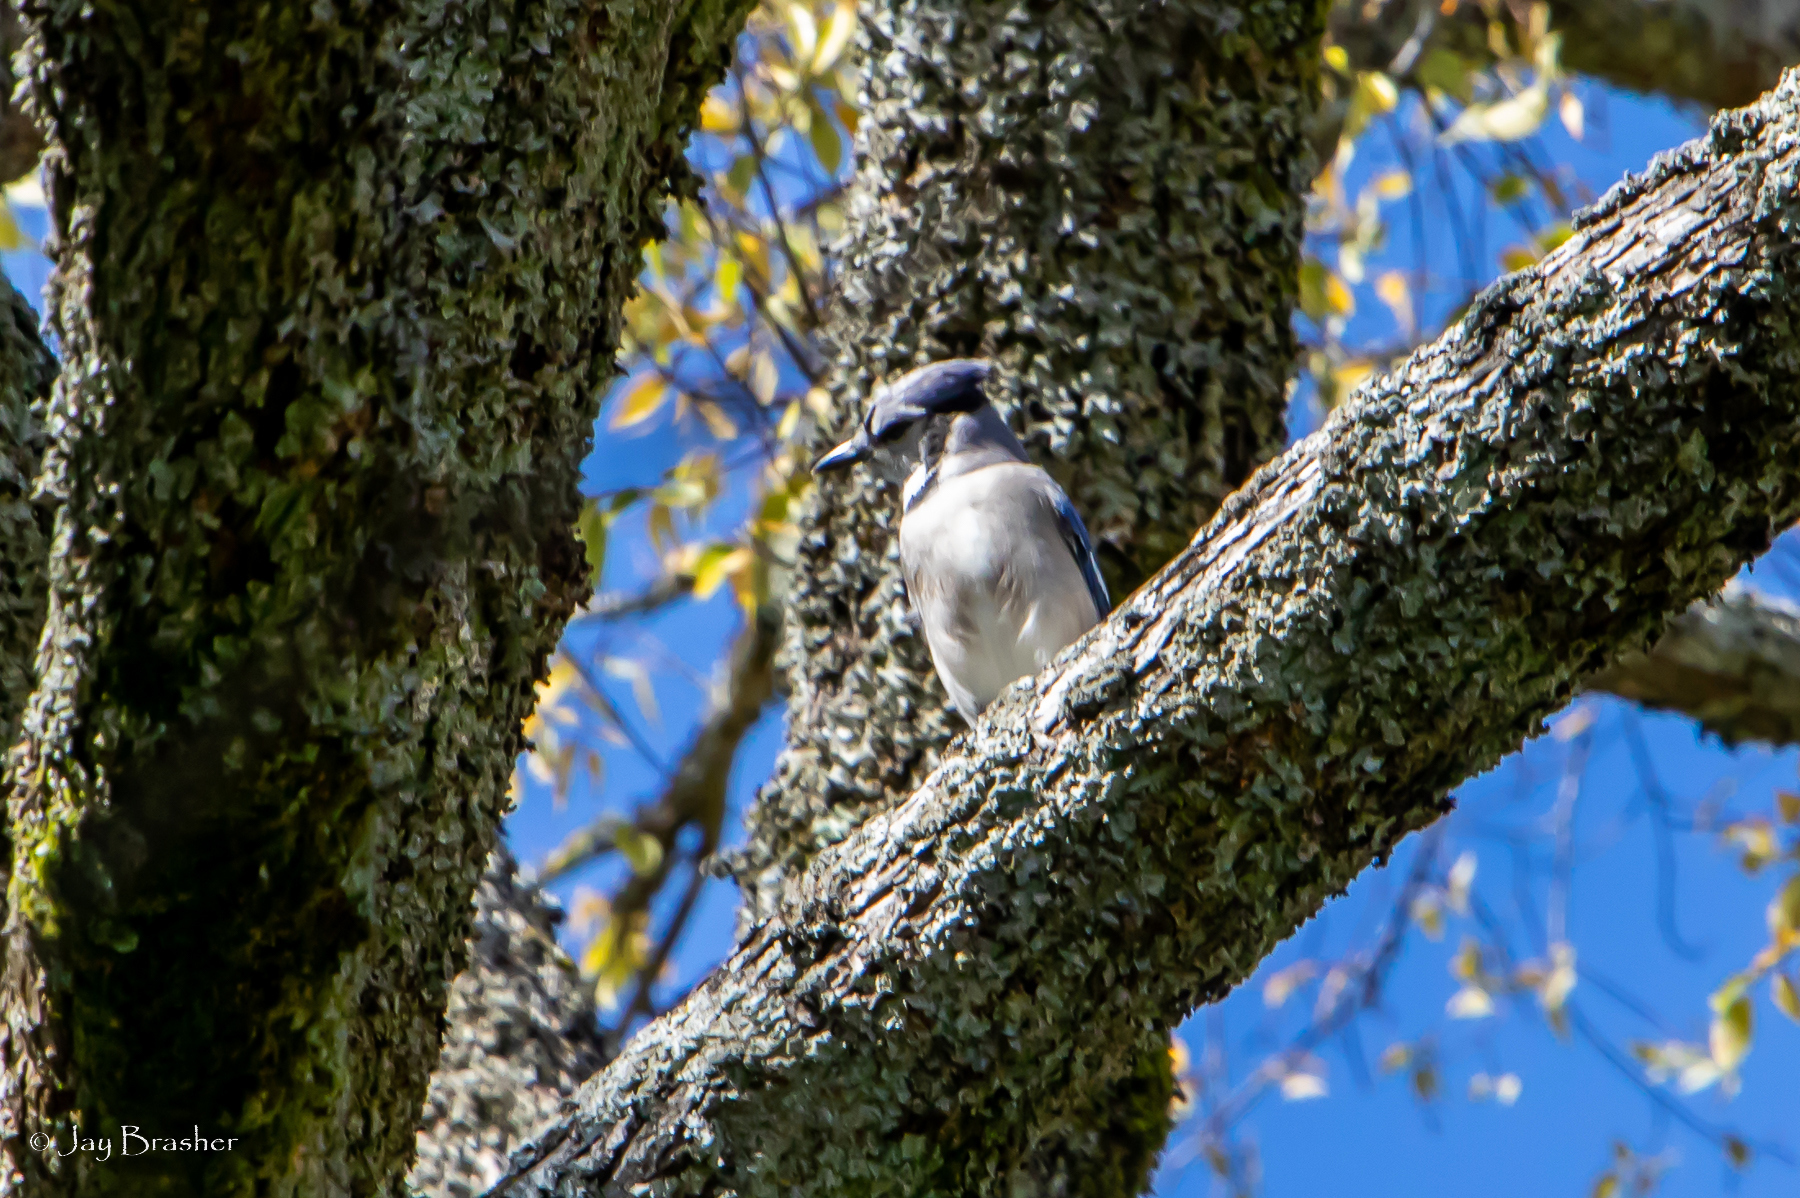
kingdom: Animalia
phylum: Chordata
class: Aves
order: Passeriformes
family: Corvidae
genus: Cyanocitta
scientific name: Cyanocitta cristata
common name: Blue jay
